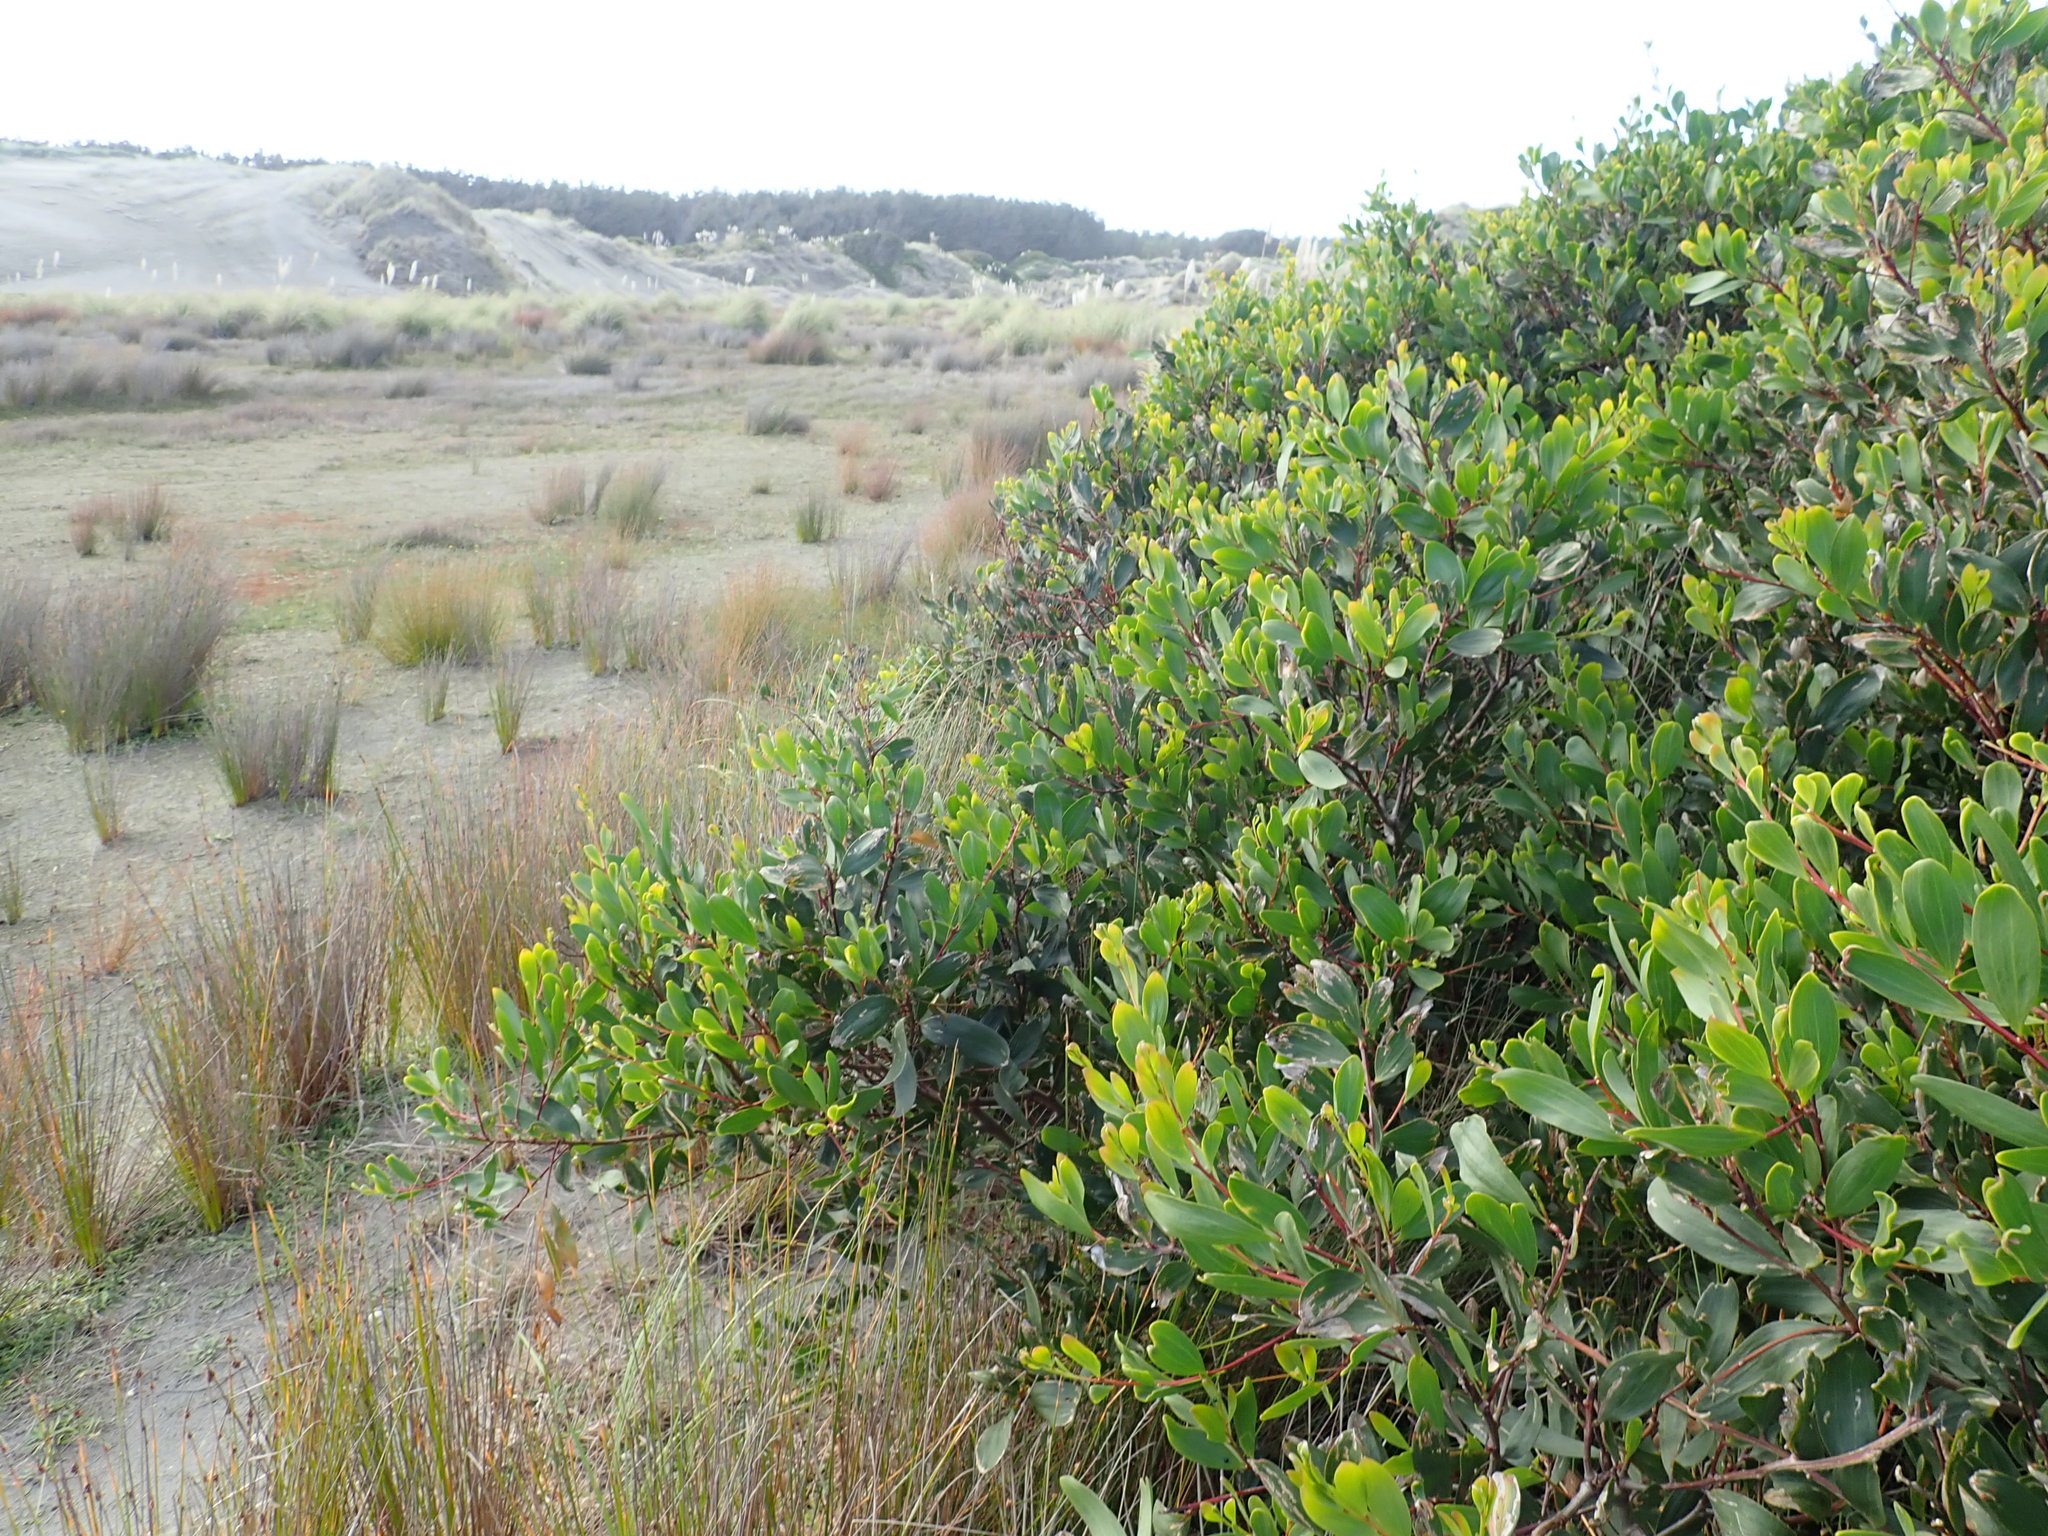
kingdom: Plantae
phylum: Tracheophyta
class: Magnoliopsida
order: Fabales
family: Fabaceae
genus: Acacia
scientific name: Acacia longifolia
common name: Sydney golden wattle
